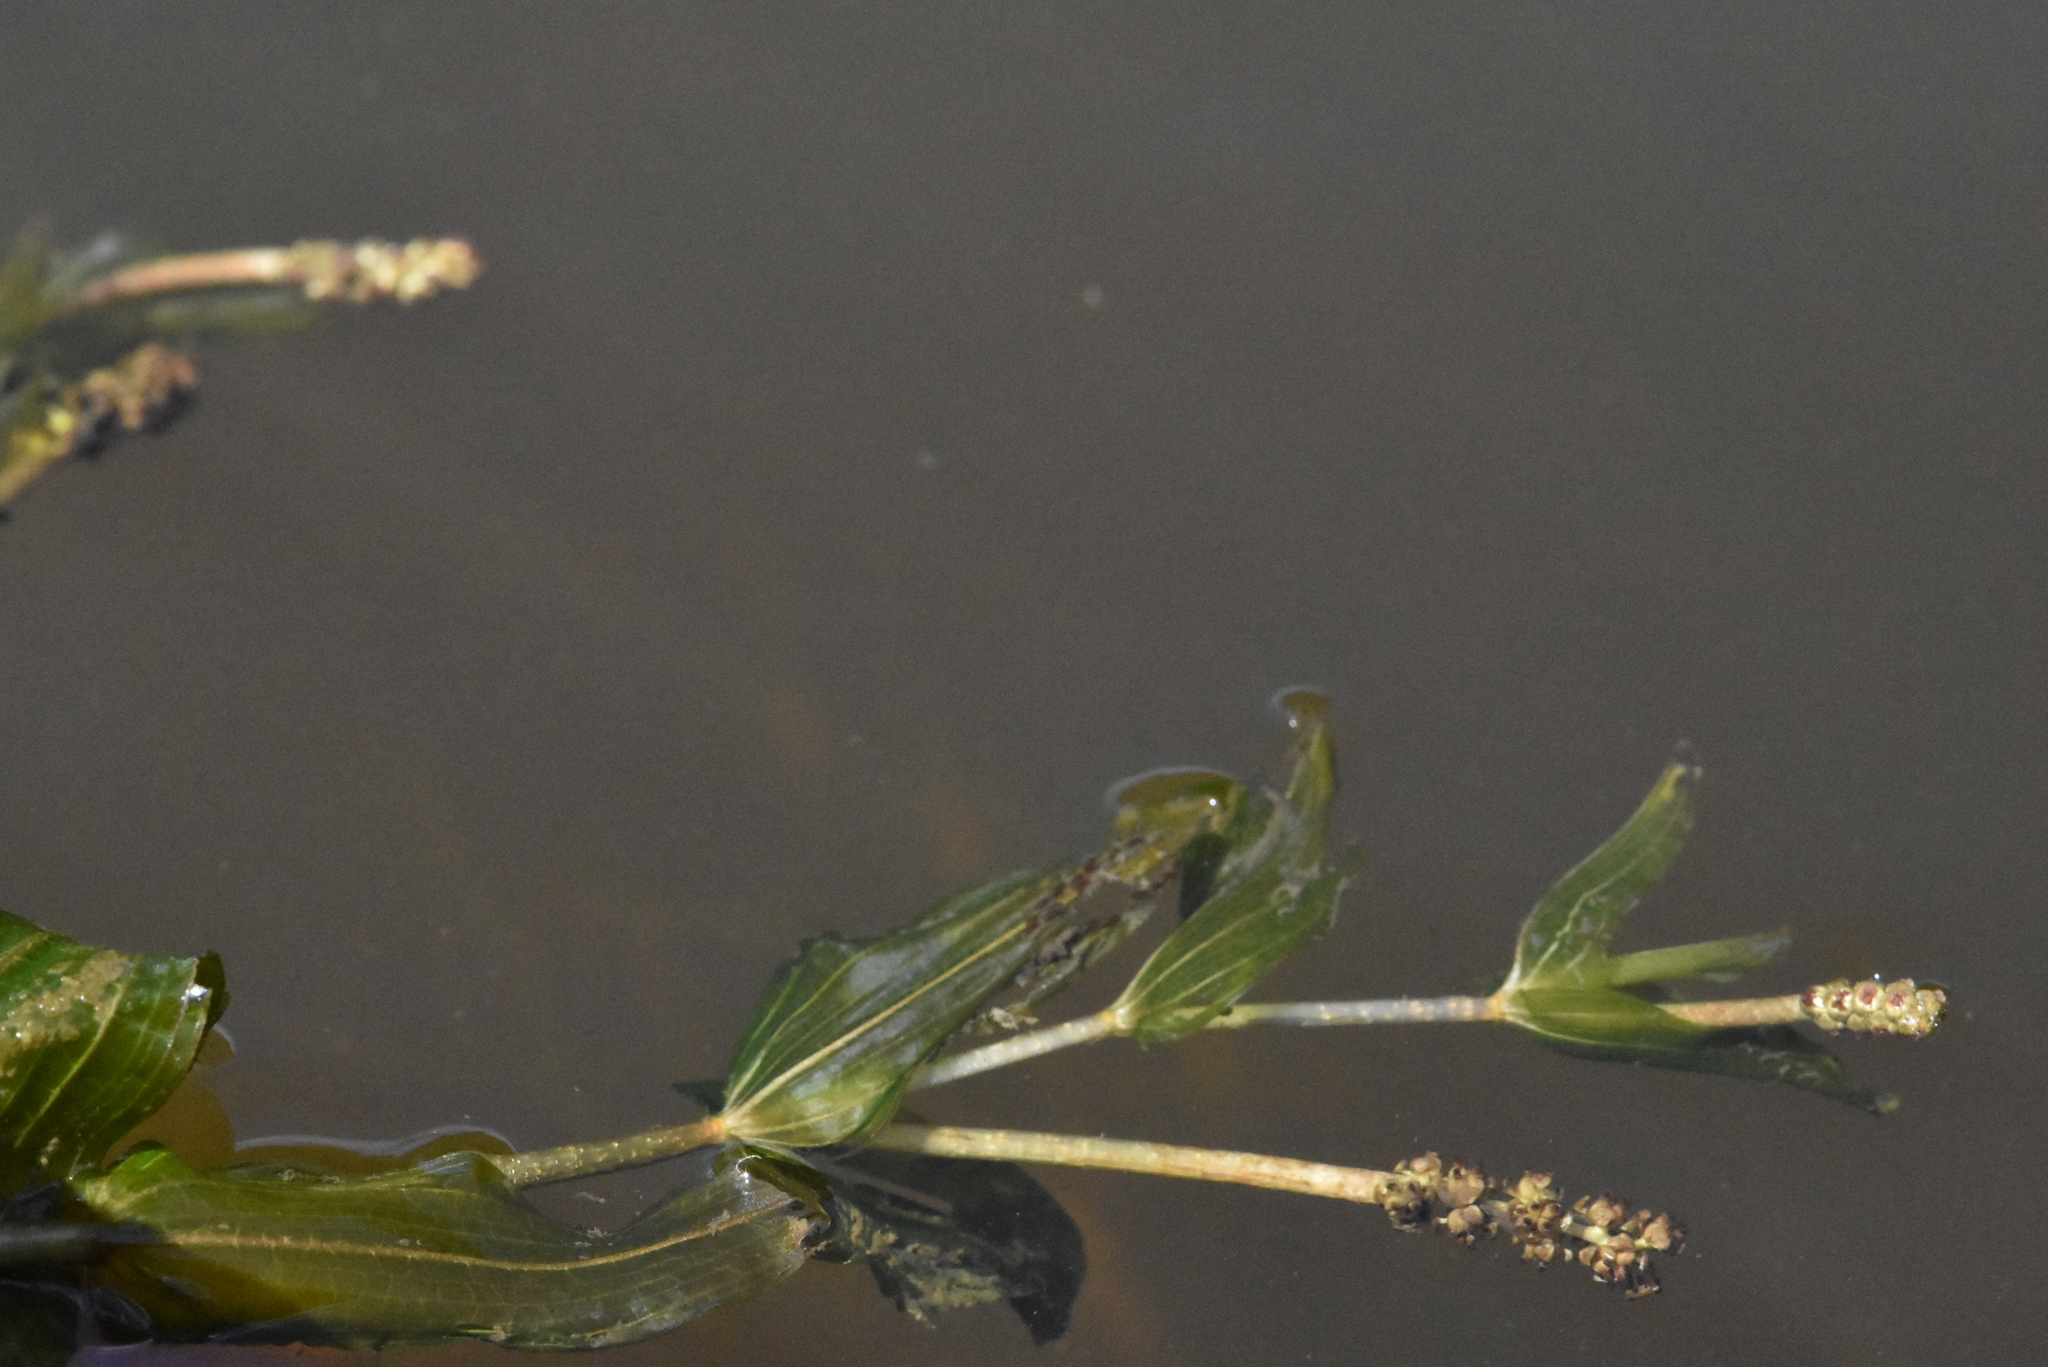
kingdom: Plantae
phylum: Tracheophyta
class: Liliopsida
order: Alismatales
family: Potamogetonaceae
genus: Potamogeton
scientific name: Potamogeton perfoliatus
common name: Perfoliate pondweed
